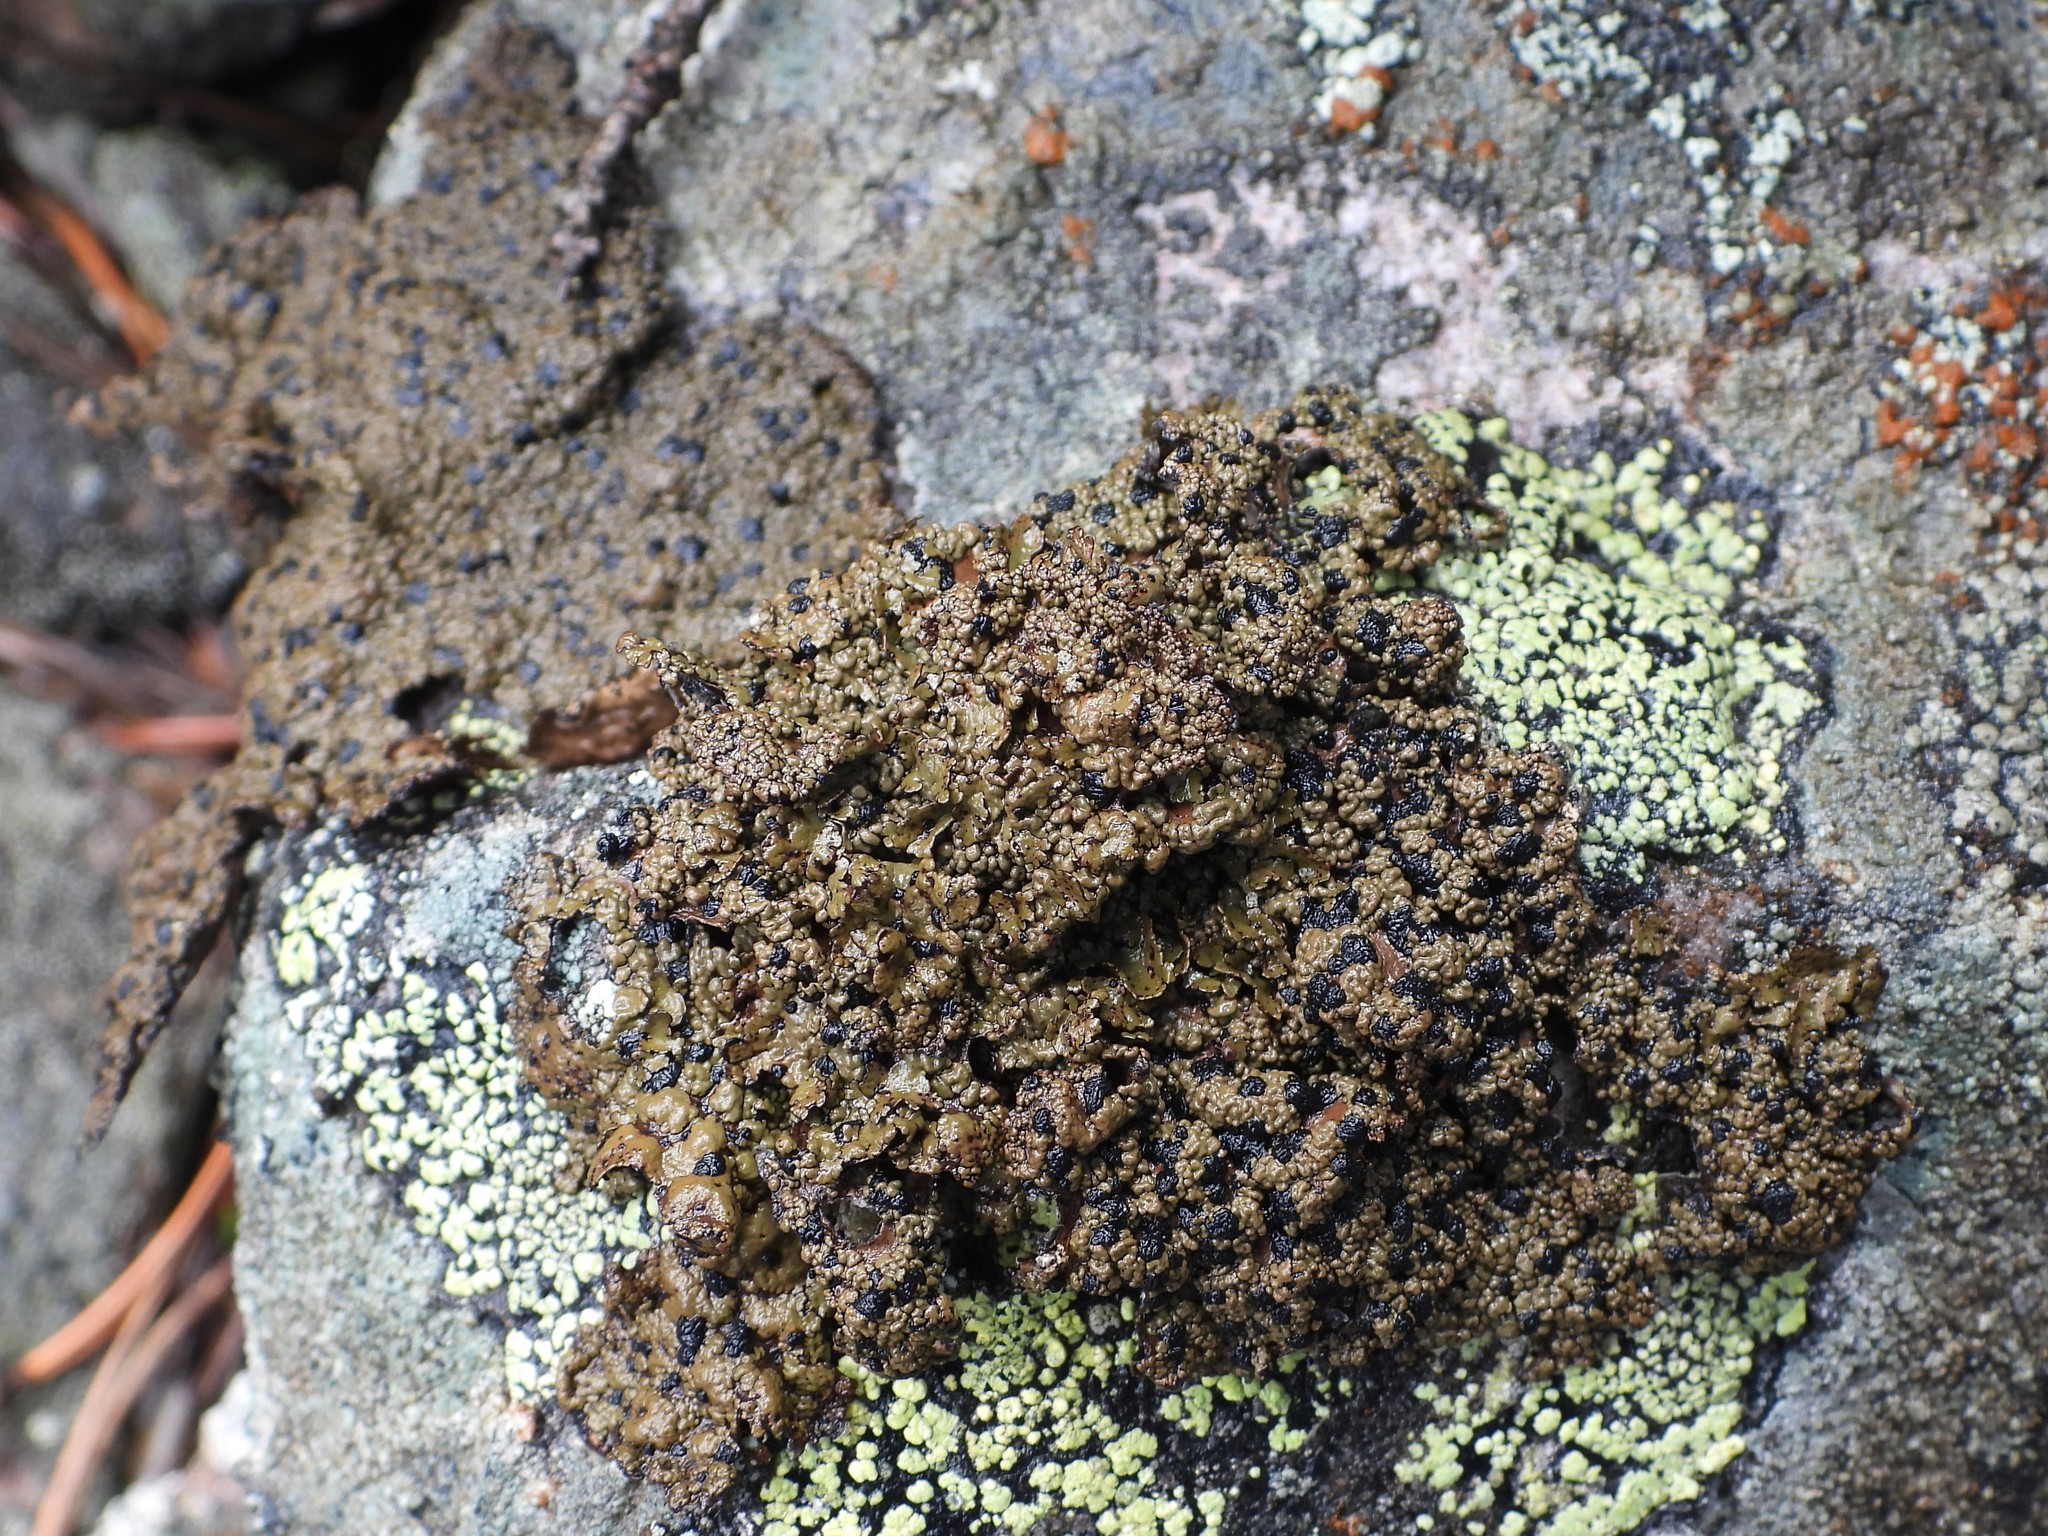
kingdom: Fungi
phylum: Ascomycota
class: Lecanoromycetes
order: Umbilicariales
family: Umbilicariaceae
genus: Umbilicaria
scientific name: Umbilicaria hyperborea
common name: Blistered rock tripe
